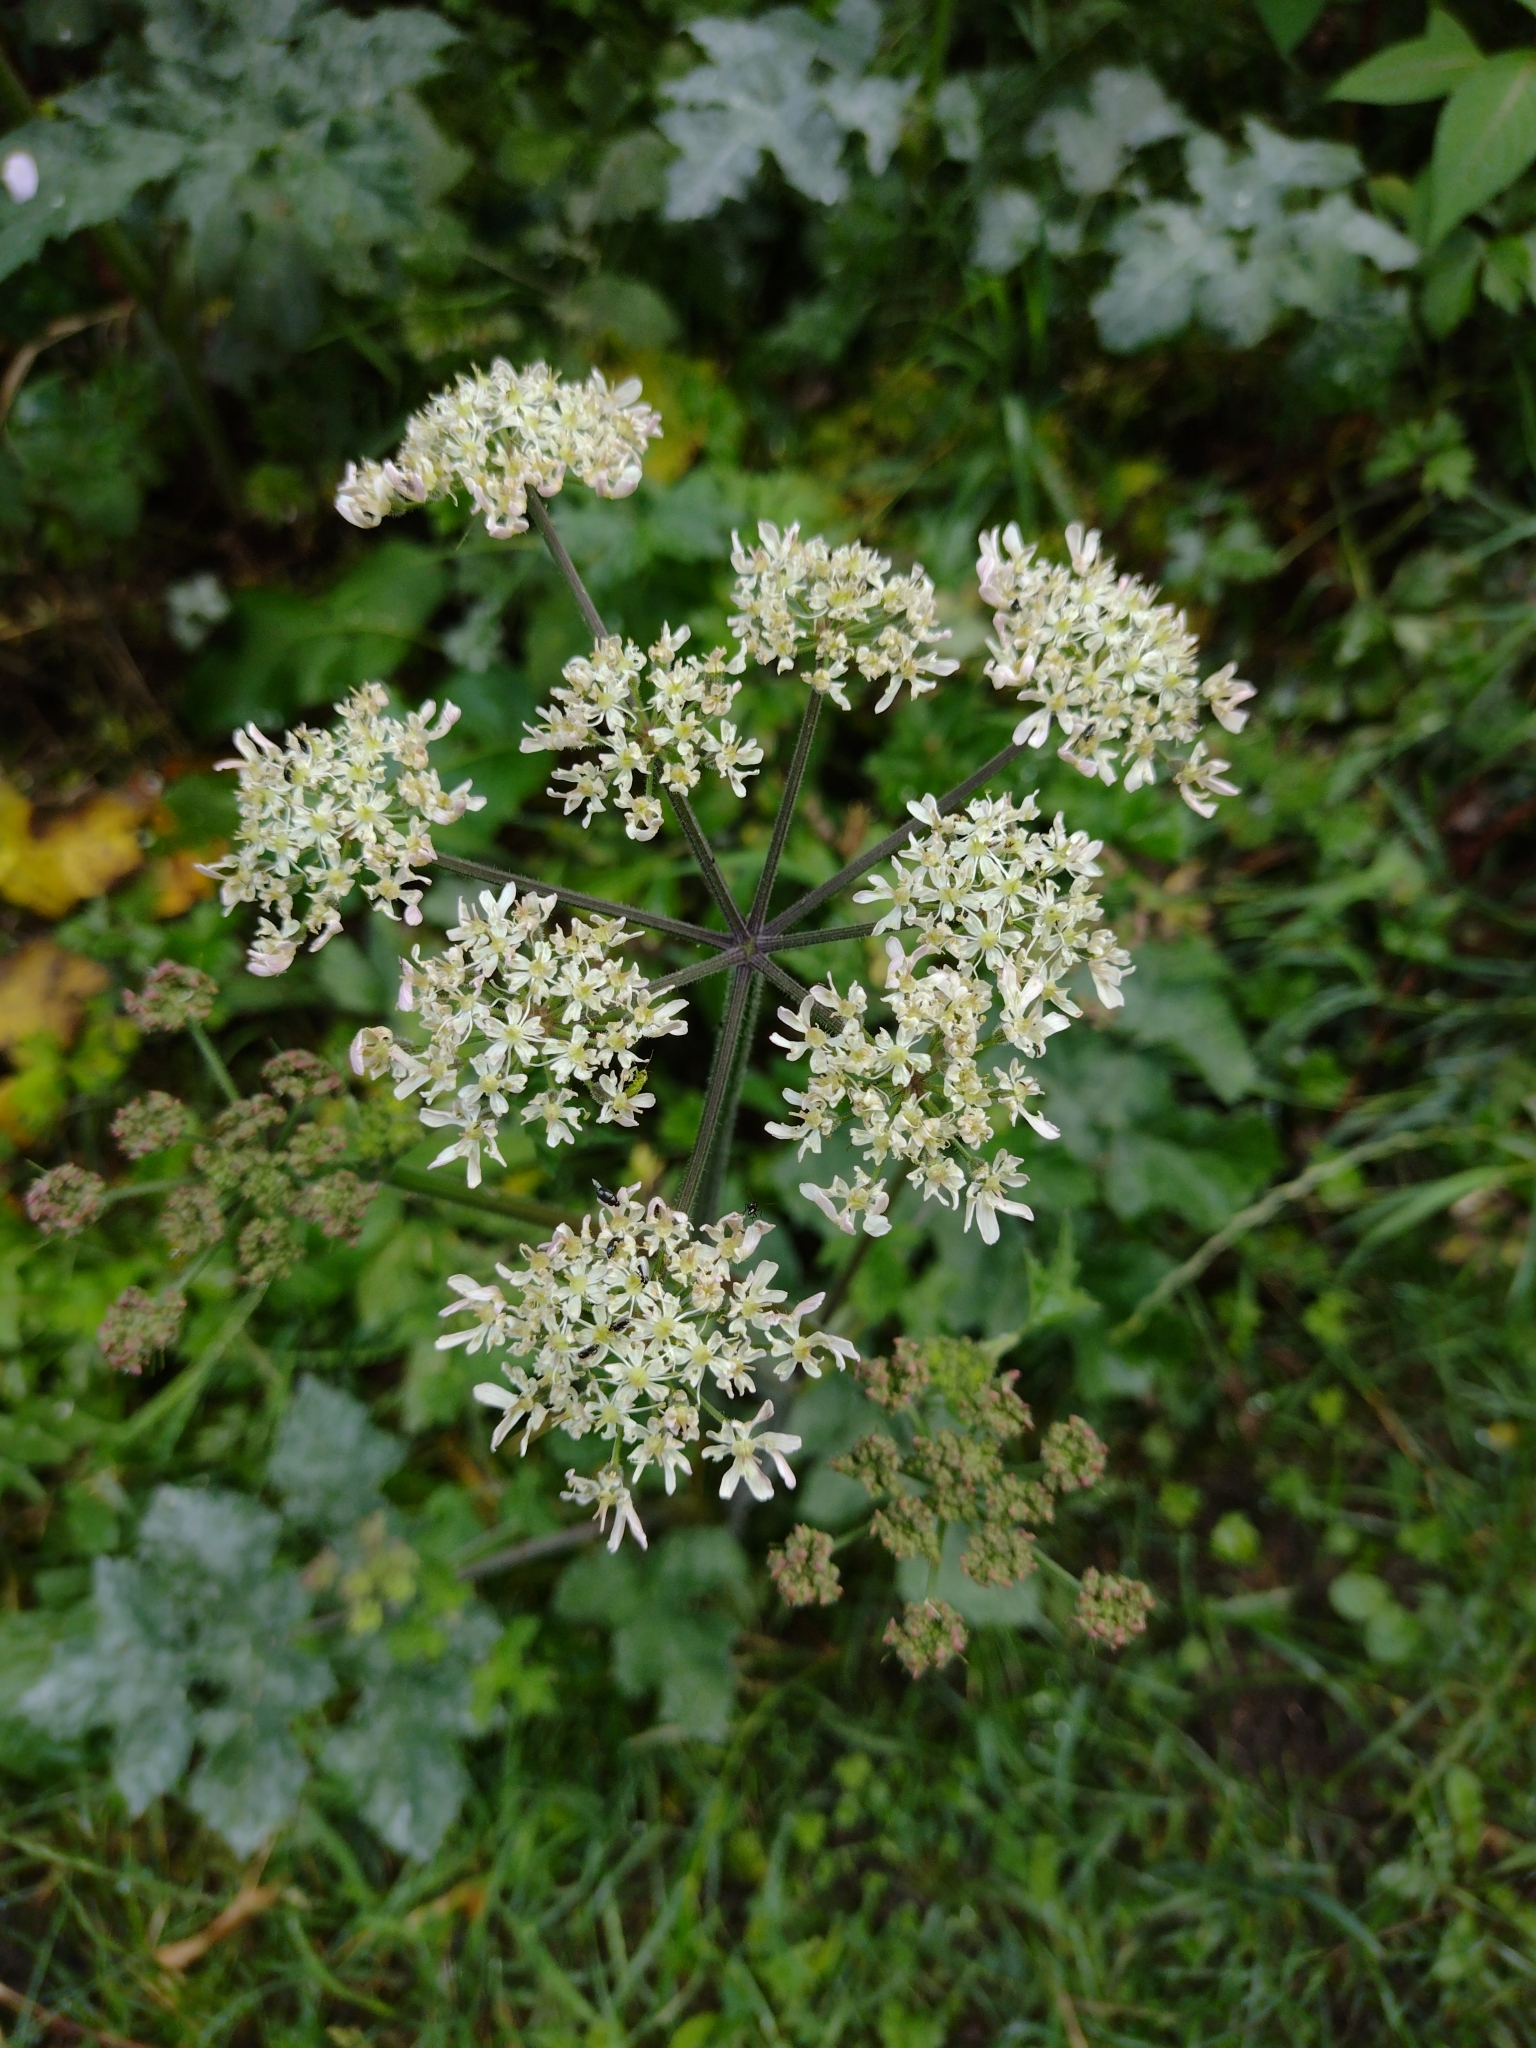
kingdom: Plantae
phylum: Tracheophyta
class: Magnoliopsida
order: Apiales
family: Apiaceae
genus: Heracleum
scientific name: Heracleum sphondylium
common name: Hogweed
